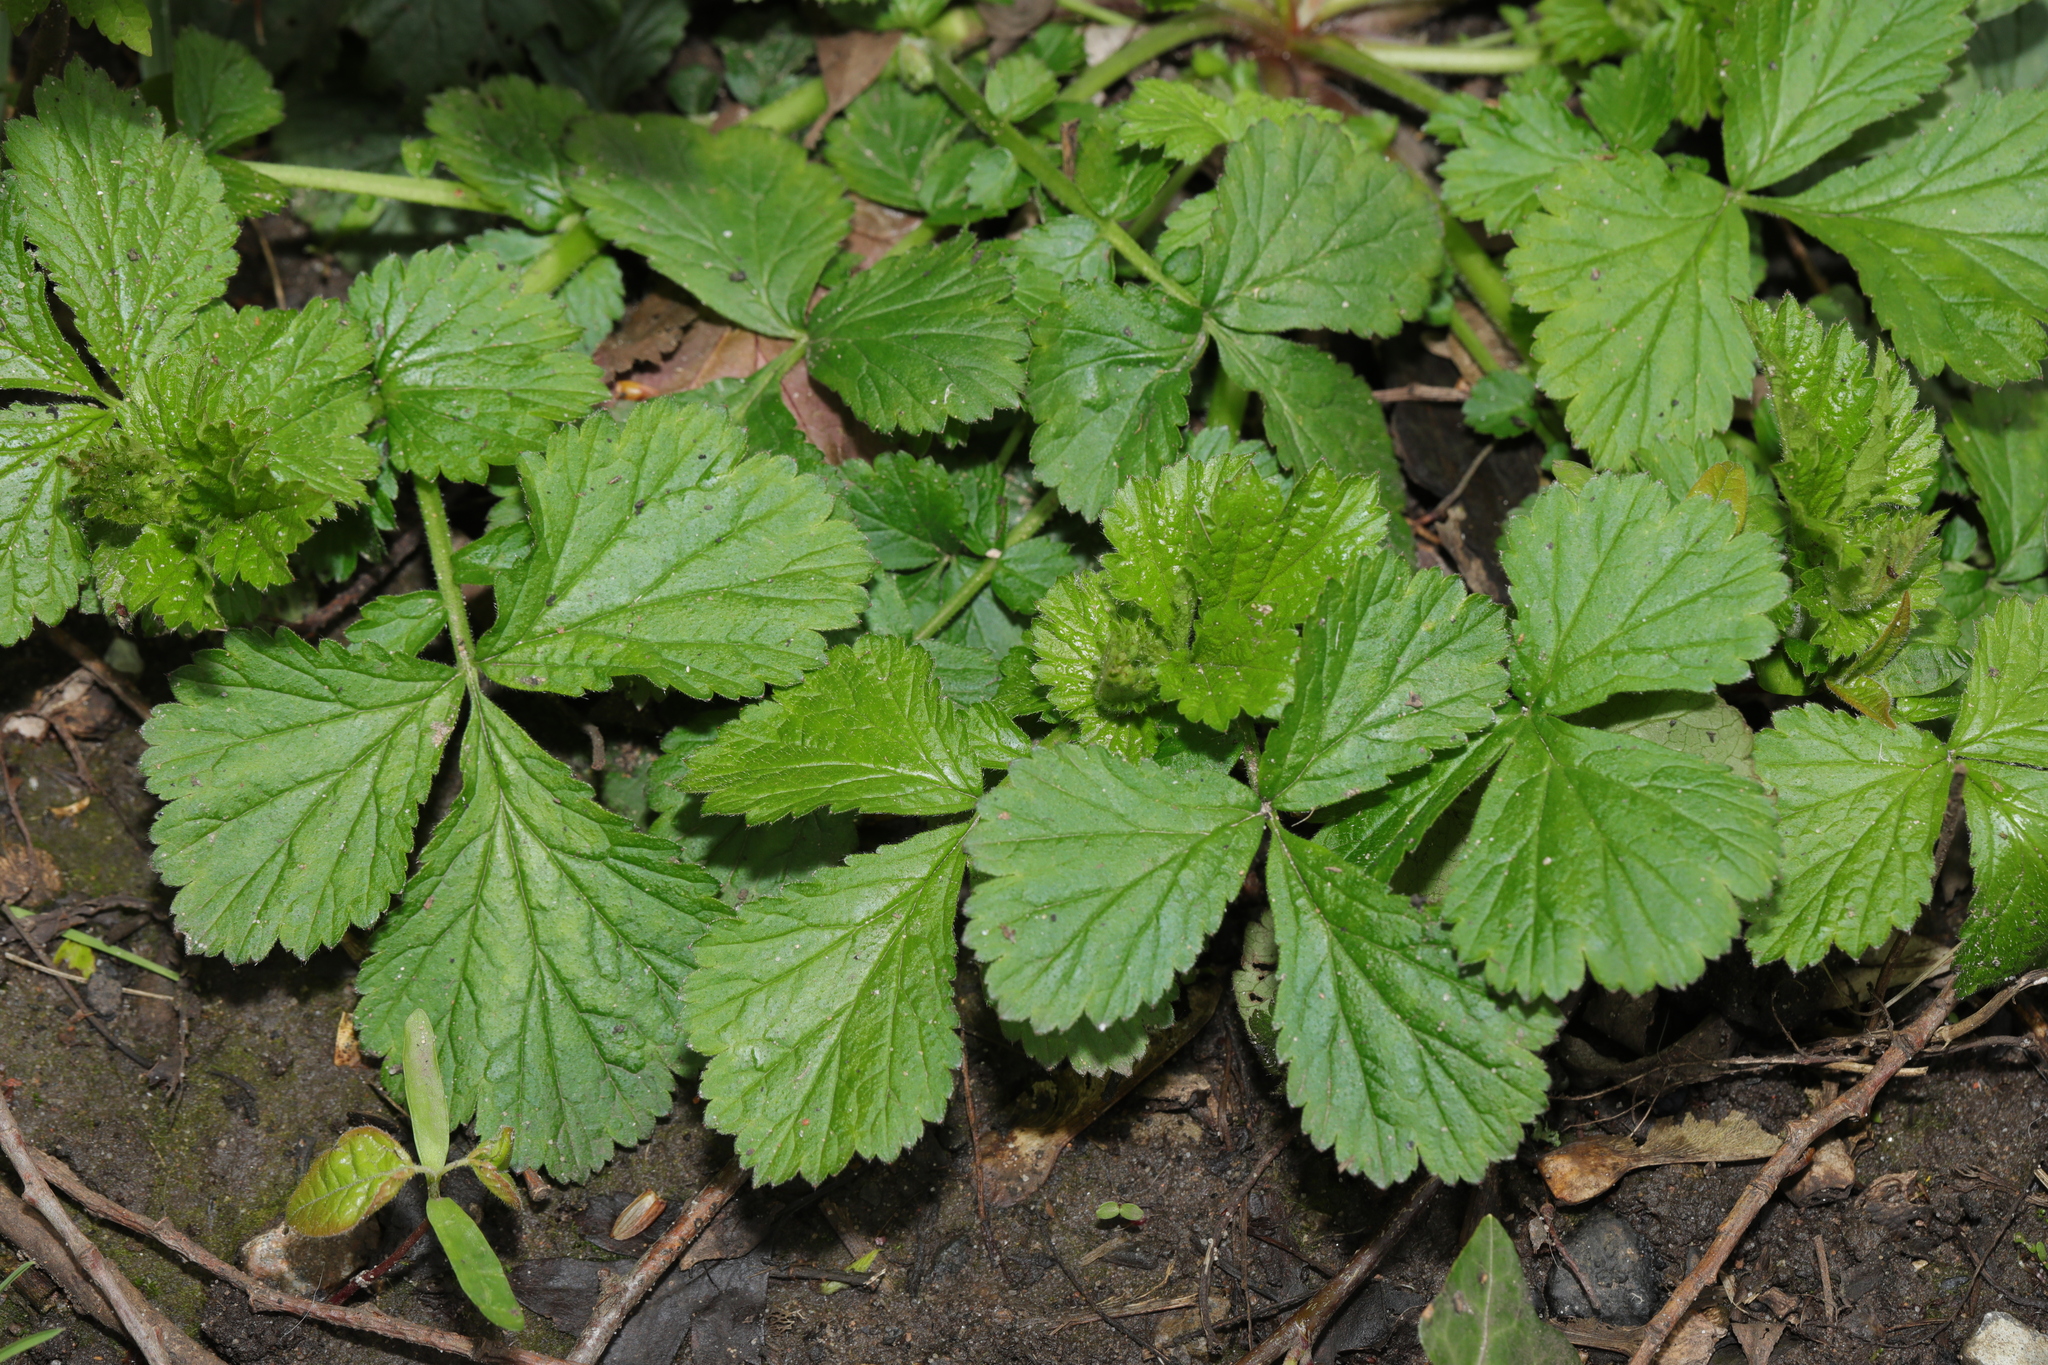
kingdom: Plantae
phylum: Tracheophyta
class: Magnoliopsida
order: Rosales
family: Rosaceae
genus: Geum
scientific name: Geum urbanum
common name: Wood avens
